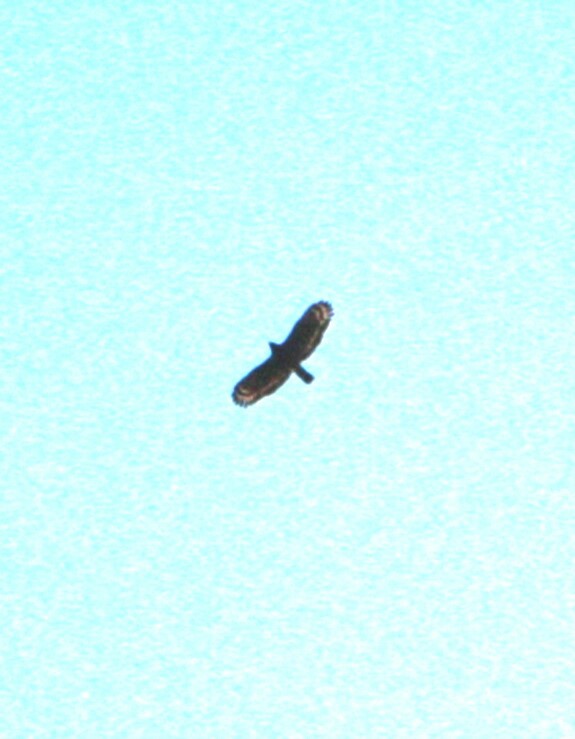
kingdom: Animalia
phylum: Chordata
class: Aves
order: Accipitriformes
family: Accipitridae
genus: Spilornis
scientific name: Spilornis cheela
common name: Crested serpent eagle
